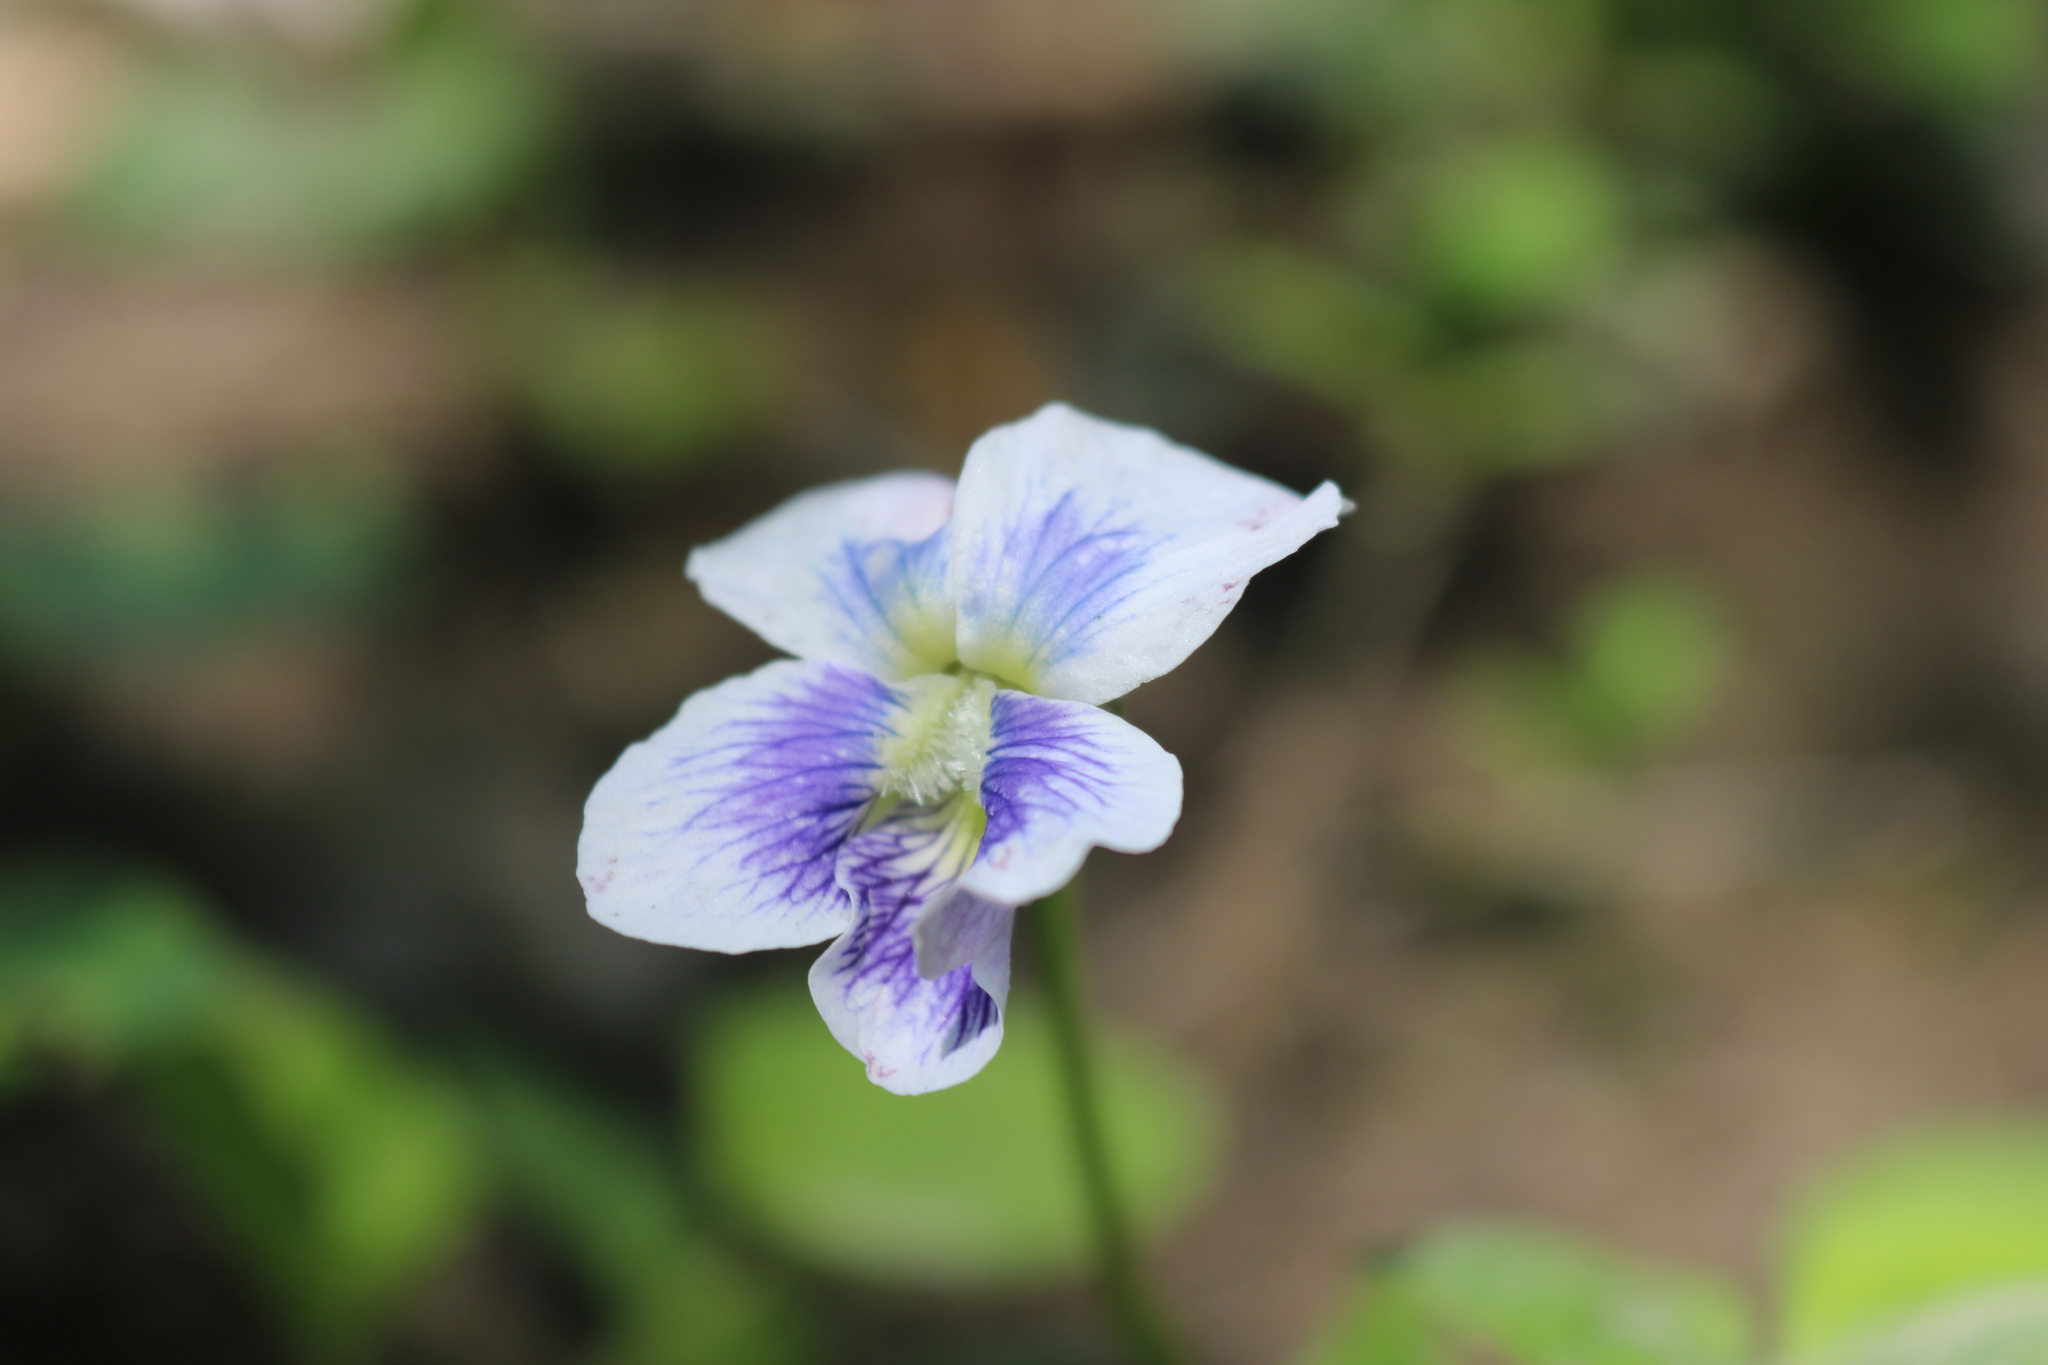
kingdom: Plantae
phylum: Tracheophyta
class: Magnoliopsida
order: Malpighiales
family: Violaceae
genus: Viola
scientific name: Viola sororia
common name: Dooryard violet
